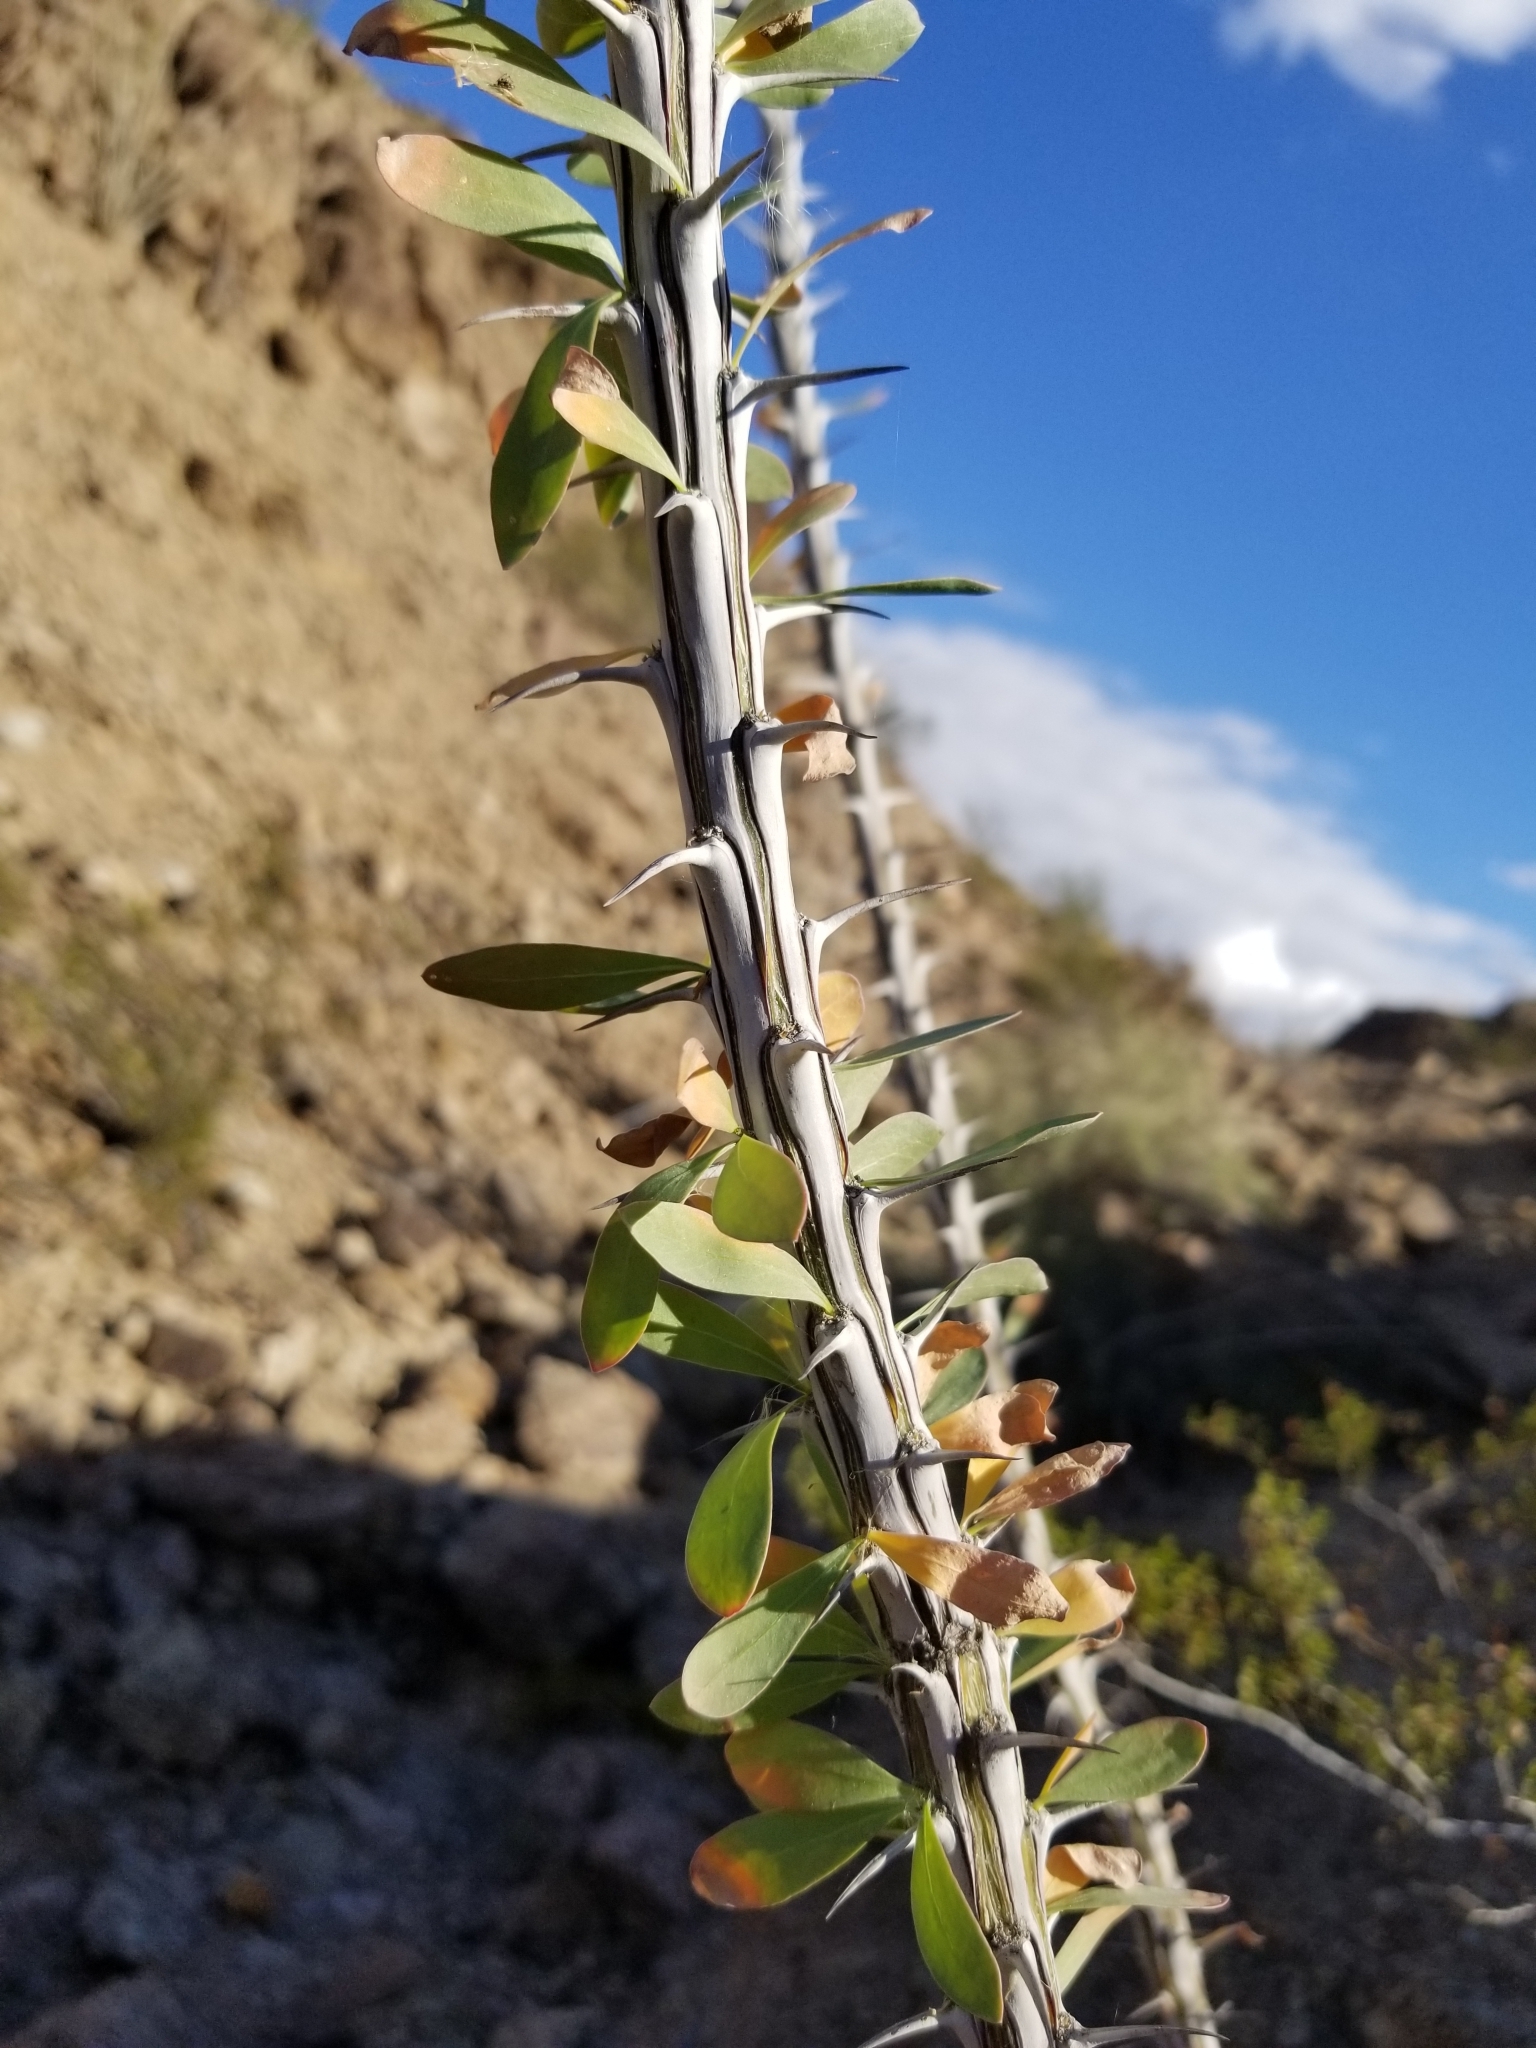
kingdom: Plantae
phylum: Tracheophyta
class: Magnoliopsida
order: Ericales
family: Fouquieriaceae
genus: Fouquieria
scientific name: Fouquieria splendens
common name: Vine-cactus
